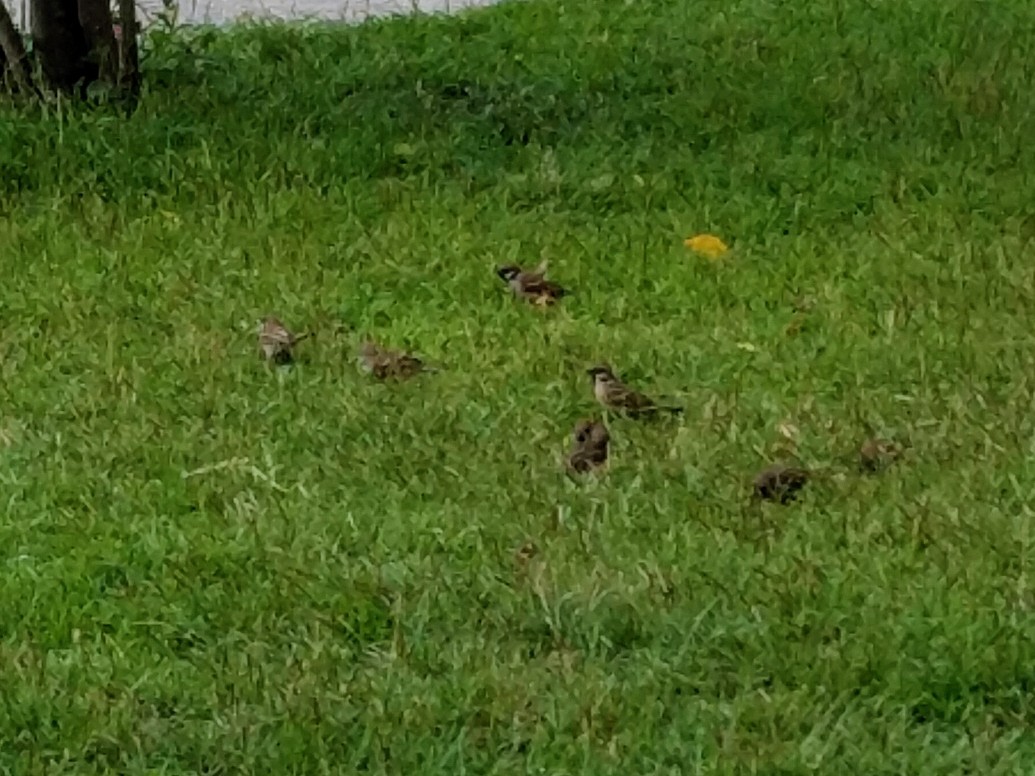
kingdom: Animalia
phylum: Chordata
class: Aves
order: Passeriformes
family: Passeridae
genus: Passer
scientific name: Passer montanus
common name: Eurasian tree sparrow
